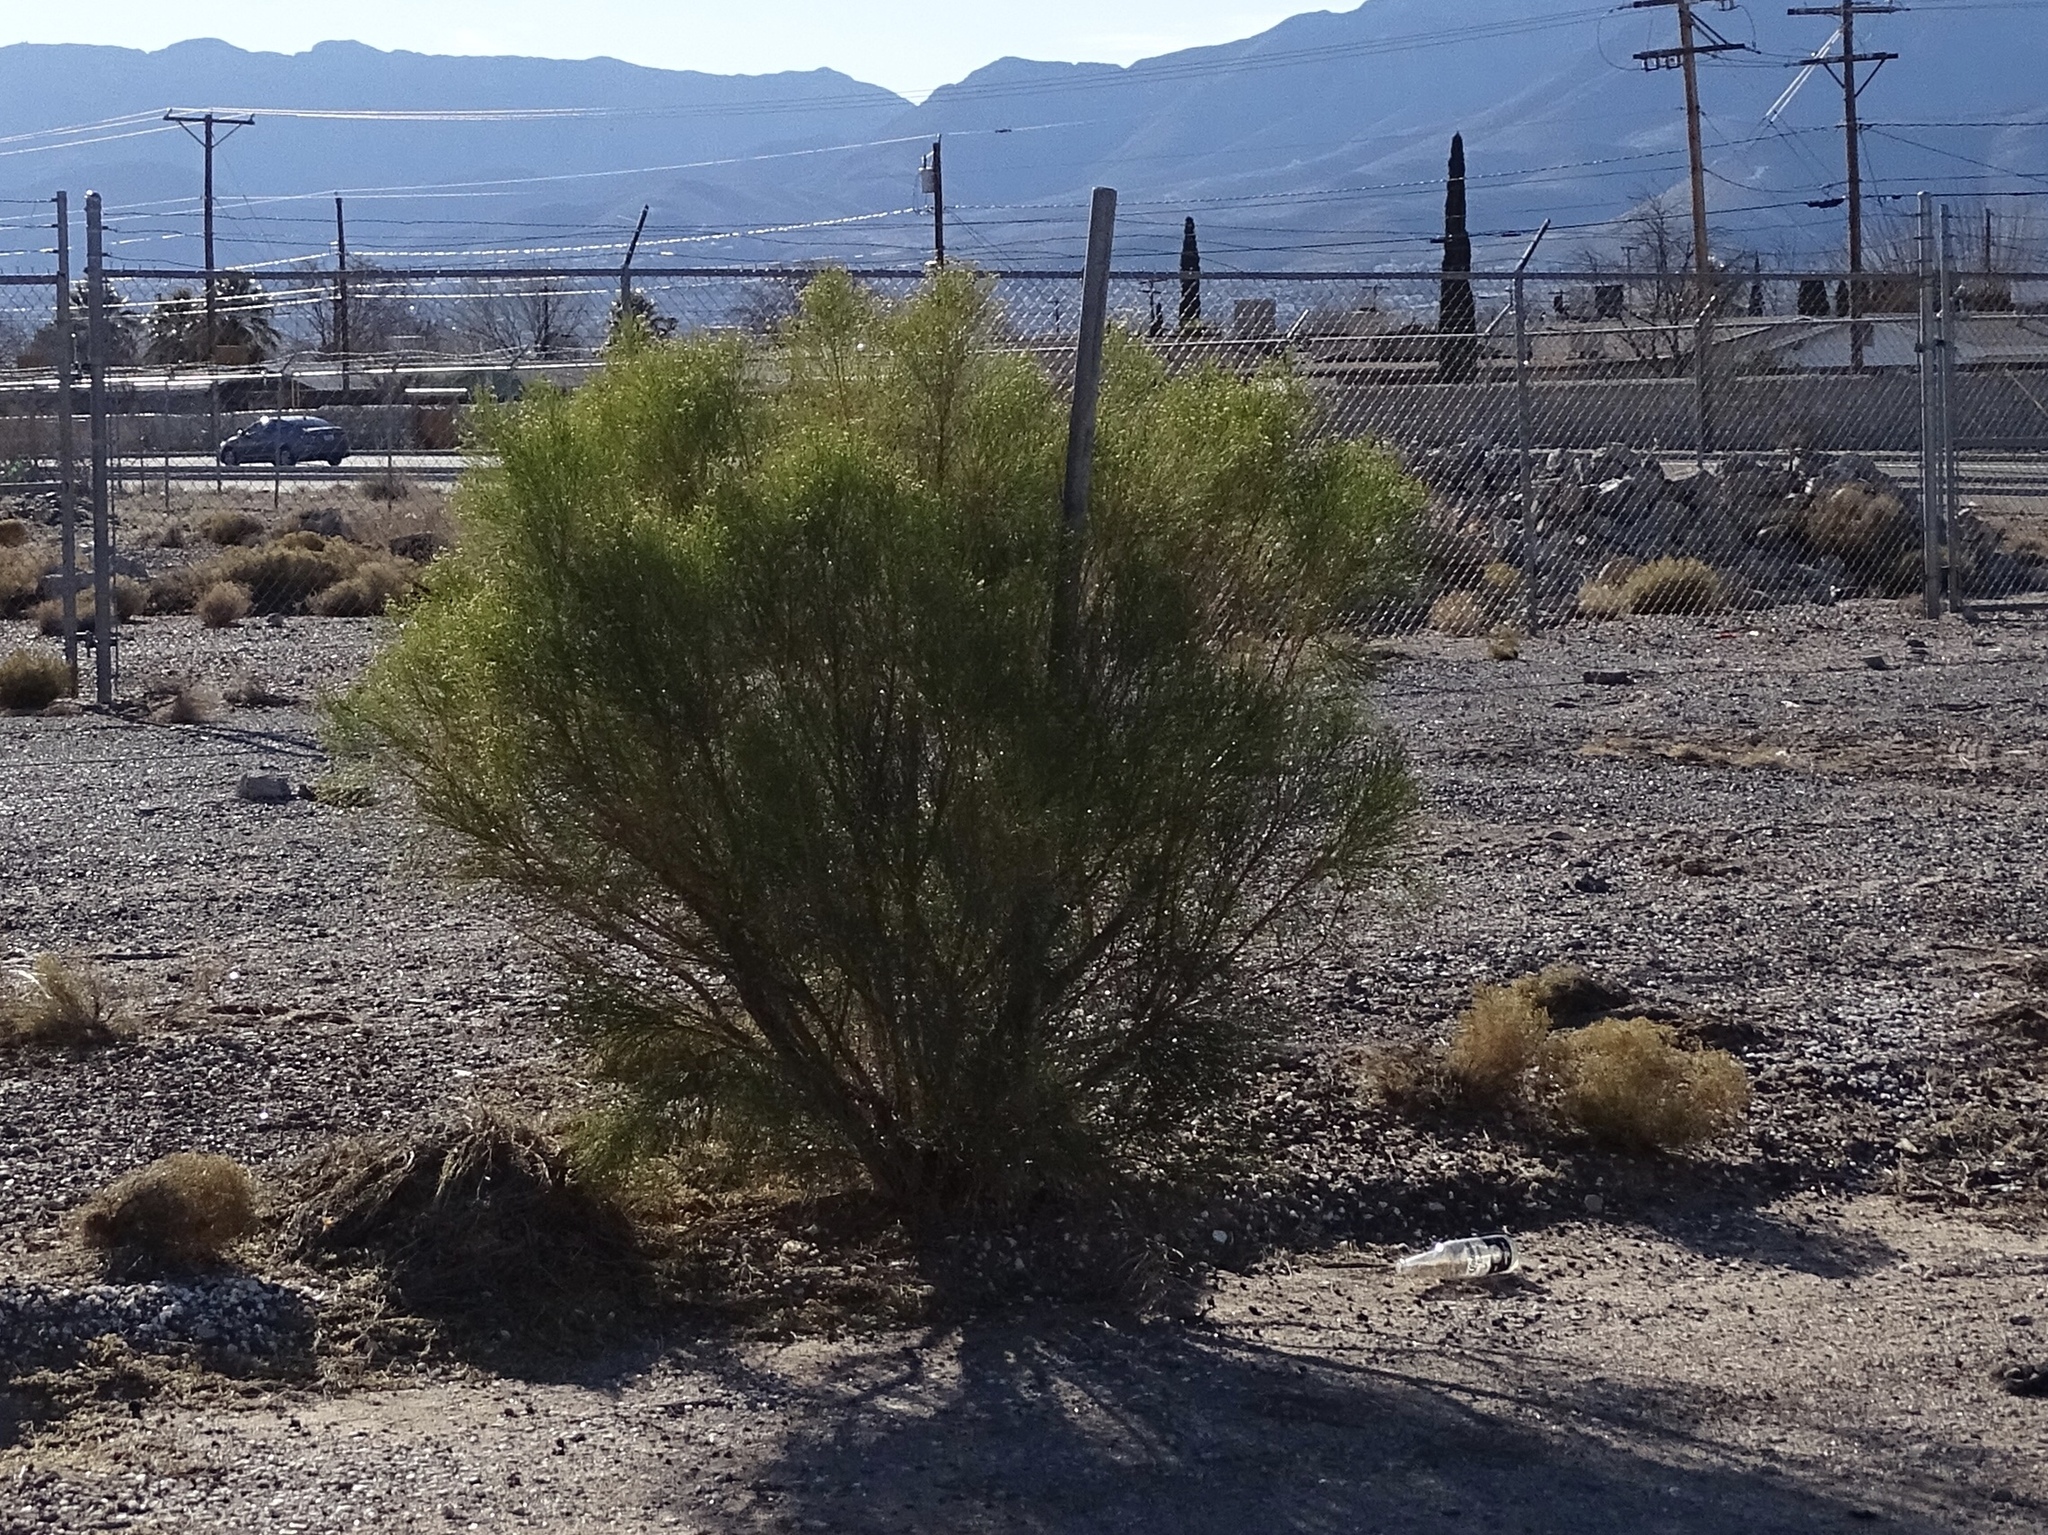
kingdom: Plantae
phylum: Tracheophyta
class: Magnoliopsida
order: Asterales
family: Asteraceae
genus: Baccharis
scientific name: Baccharis sarothroides
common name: Desert-broom
